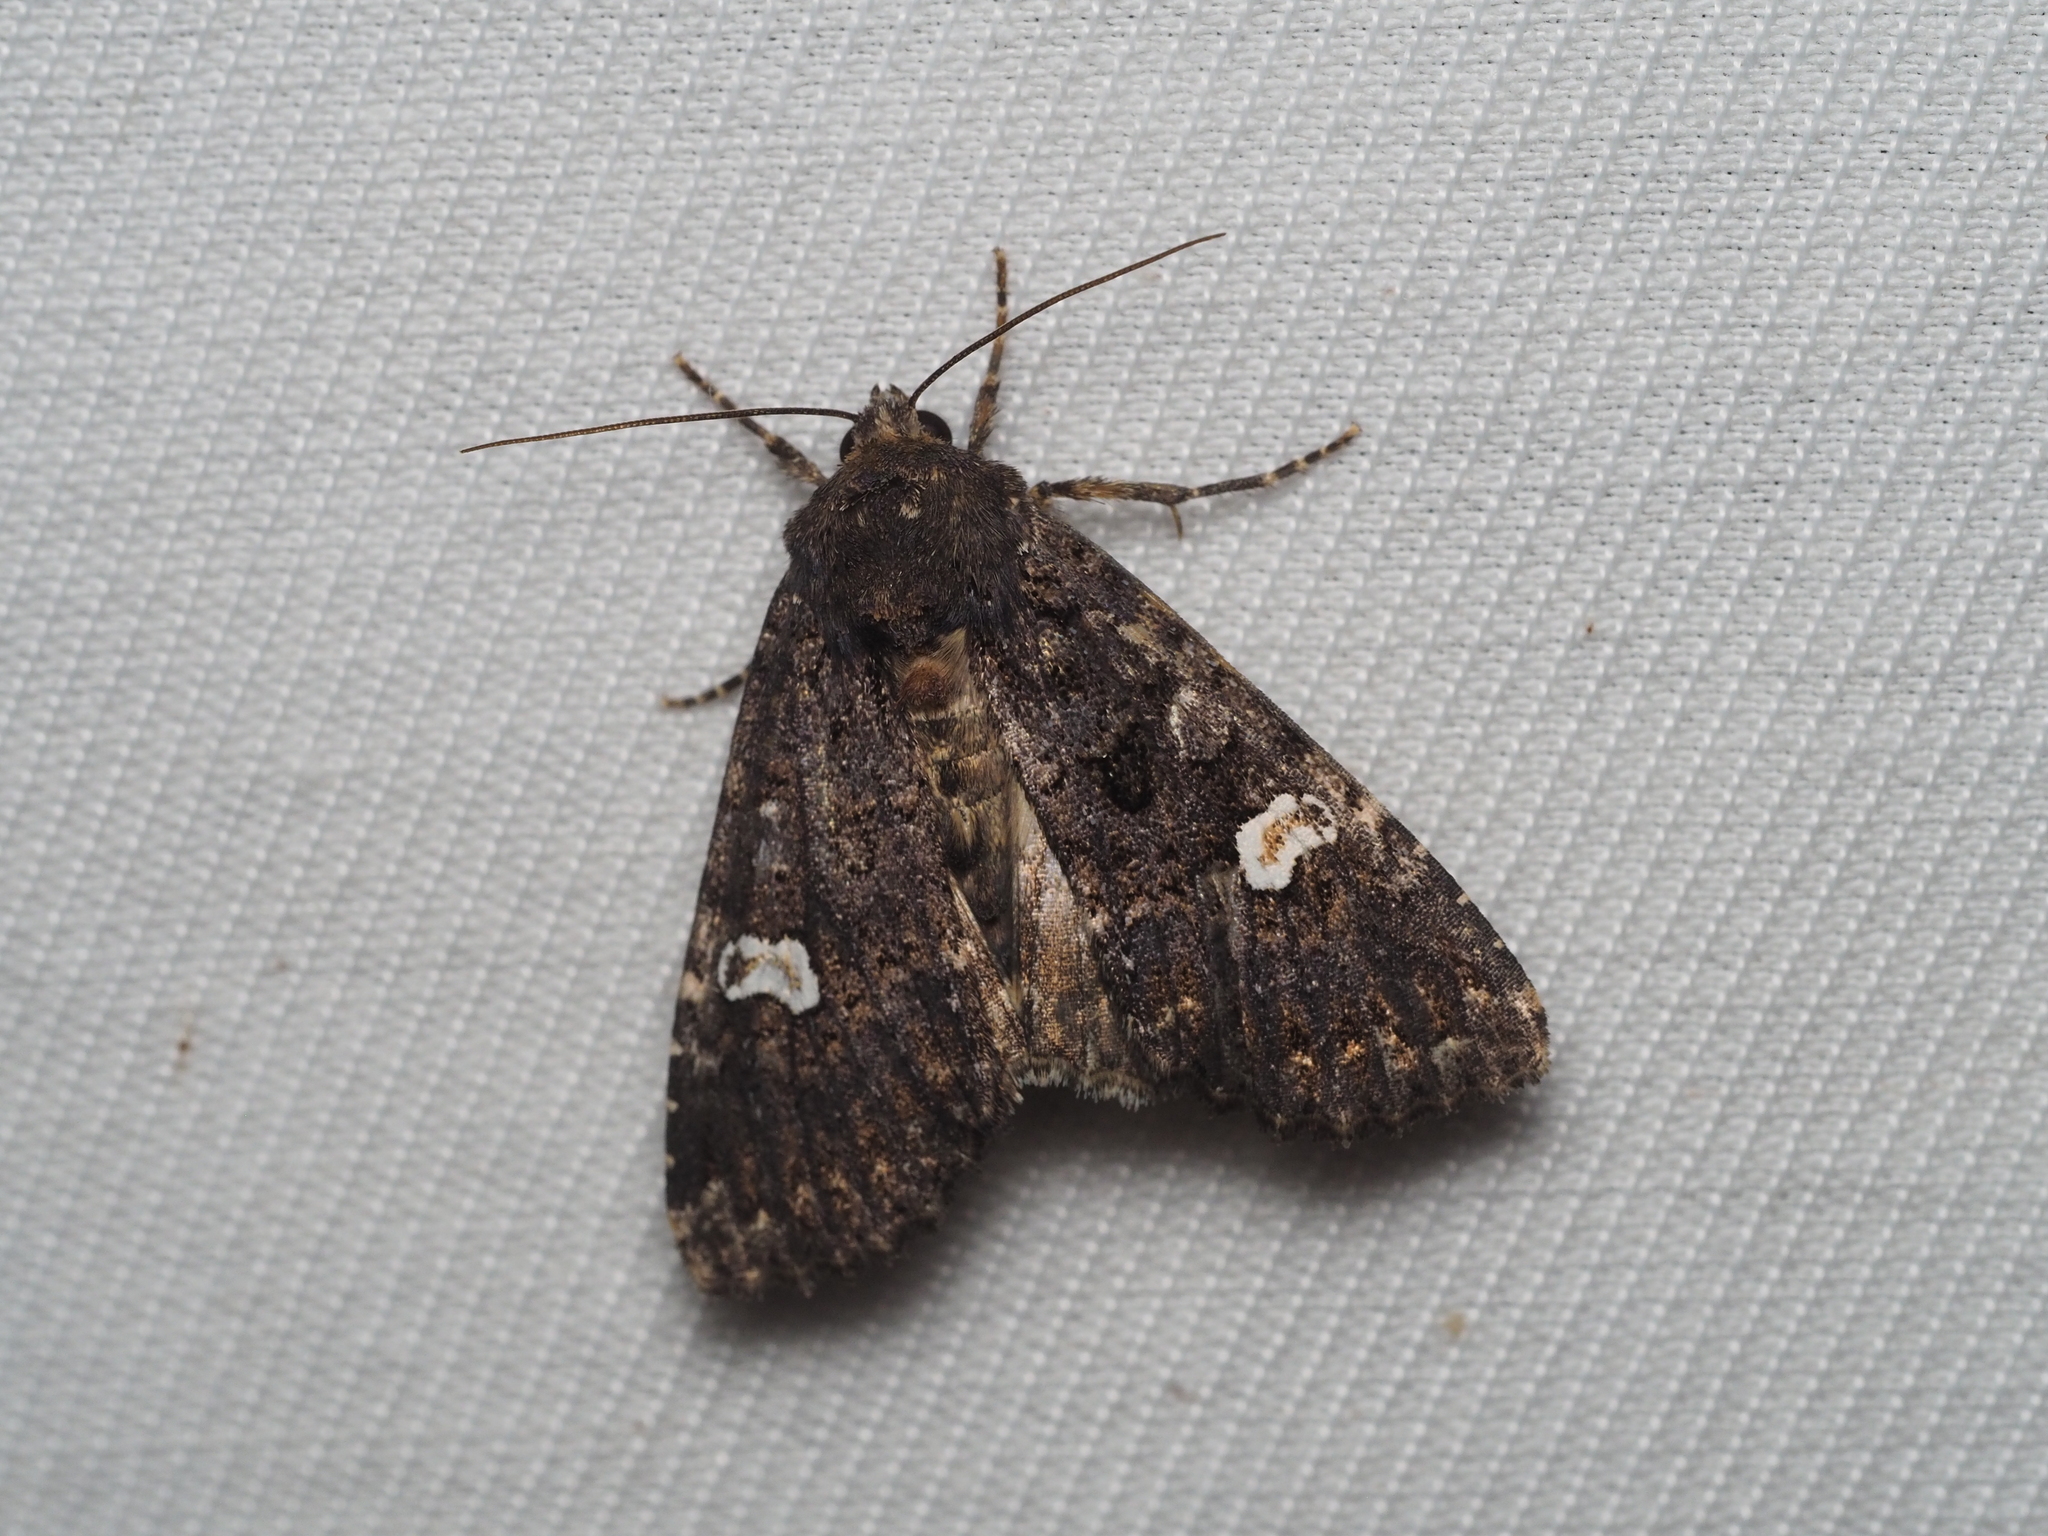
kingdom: Animalia
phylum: Arthropoda
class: Insecta
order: Lepidoptera
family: Noctuidae
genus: Melanchra
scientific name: Melanchra persicariae
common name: Dot moth
